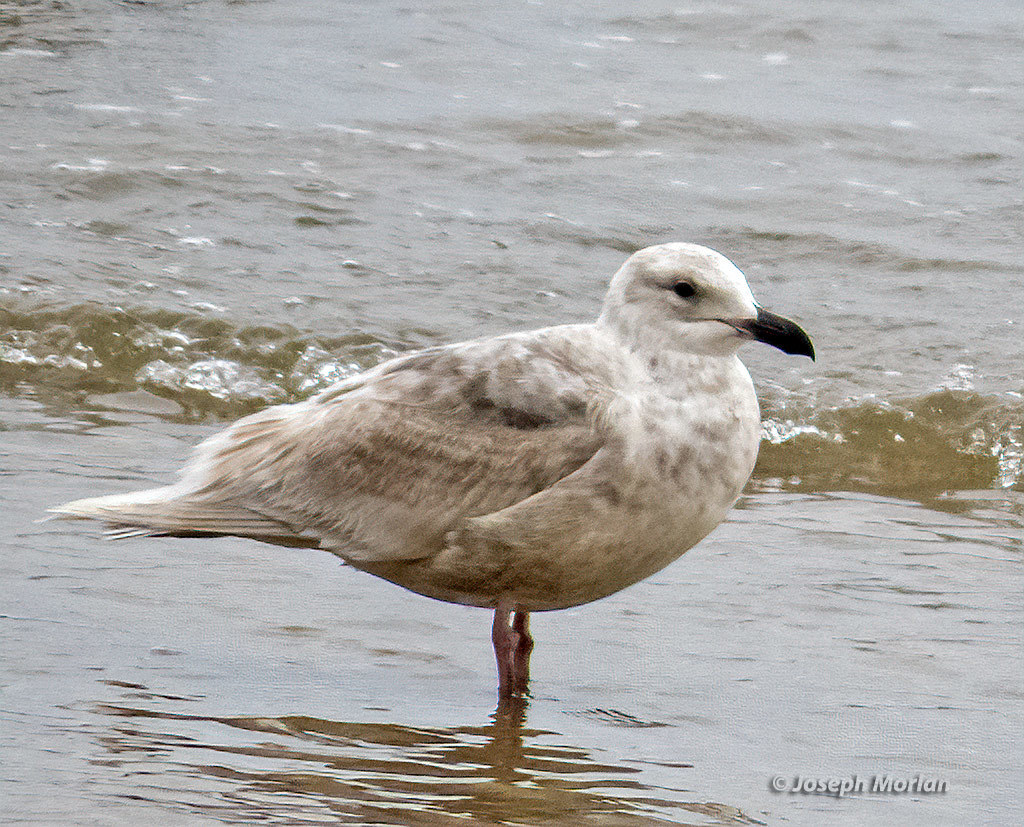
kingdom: Animalia
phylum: Chordata
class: Aves
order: Charadriiformes
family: Laridae
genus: Larus
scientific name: Larus glaucescens
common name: Glaucous-winged gull
